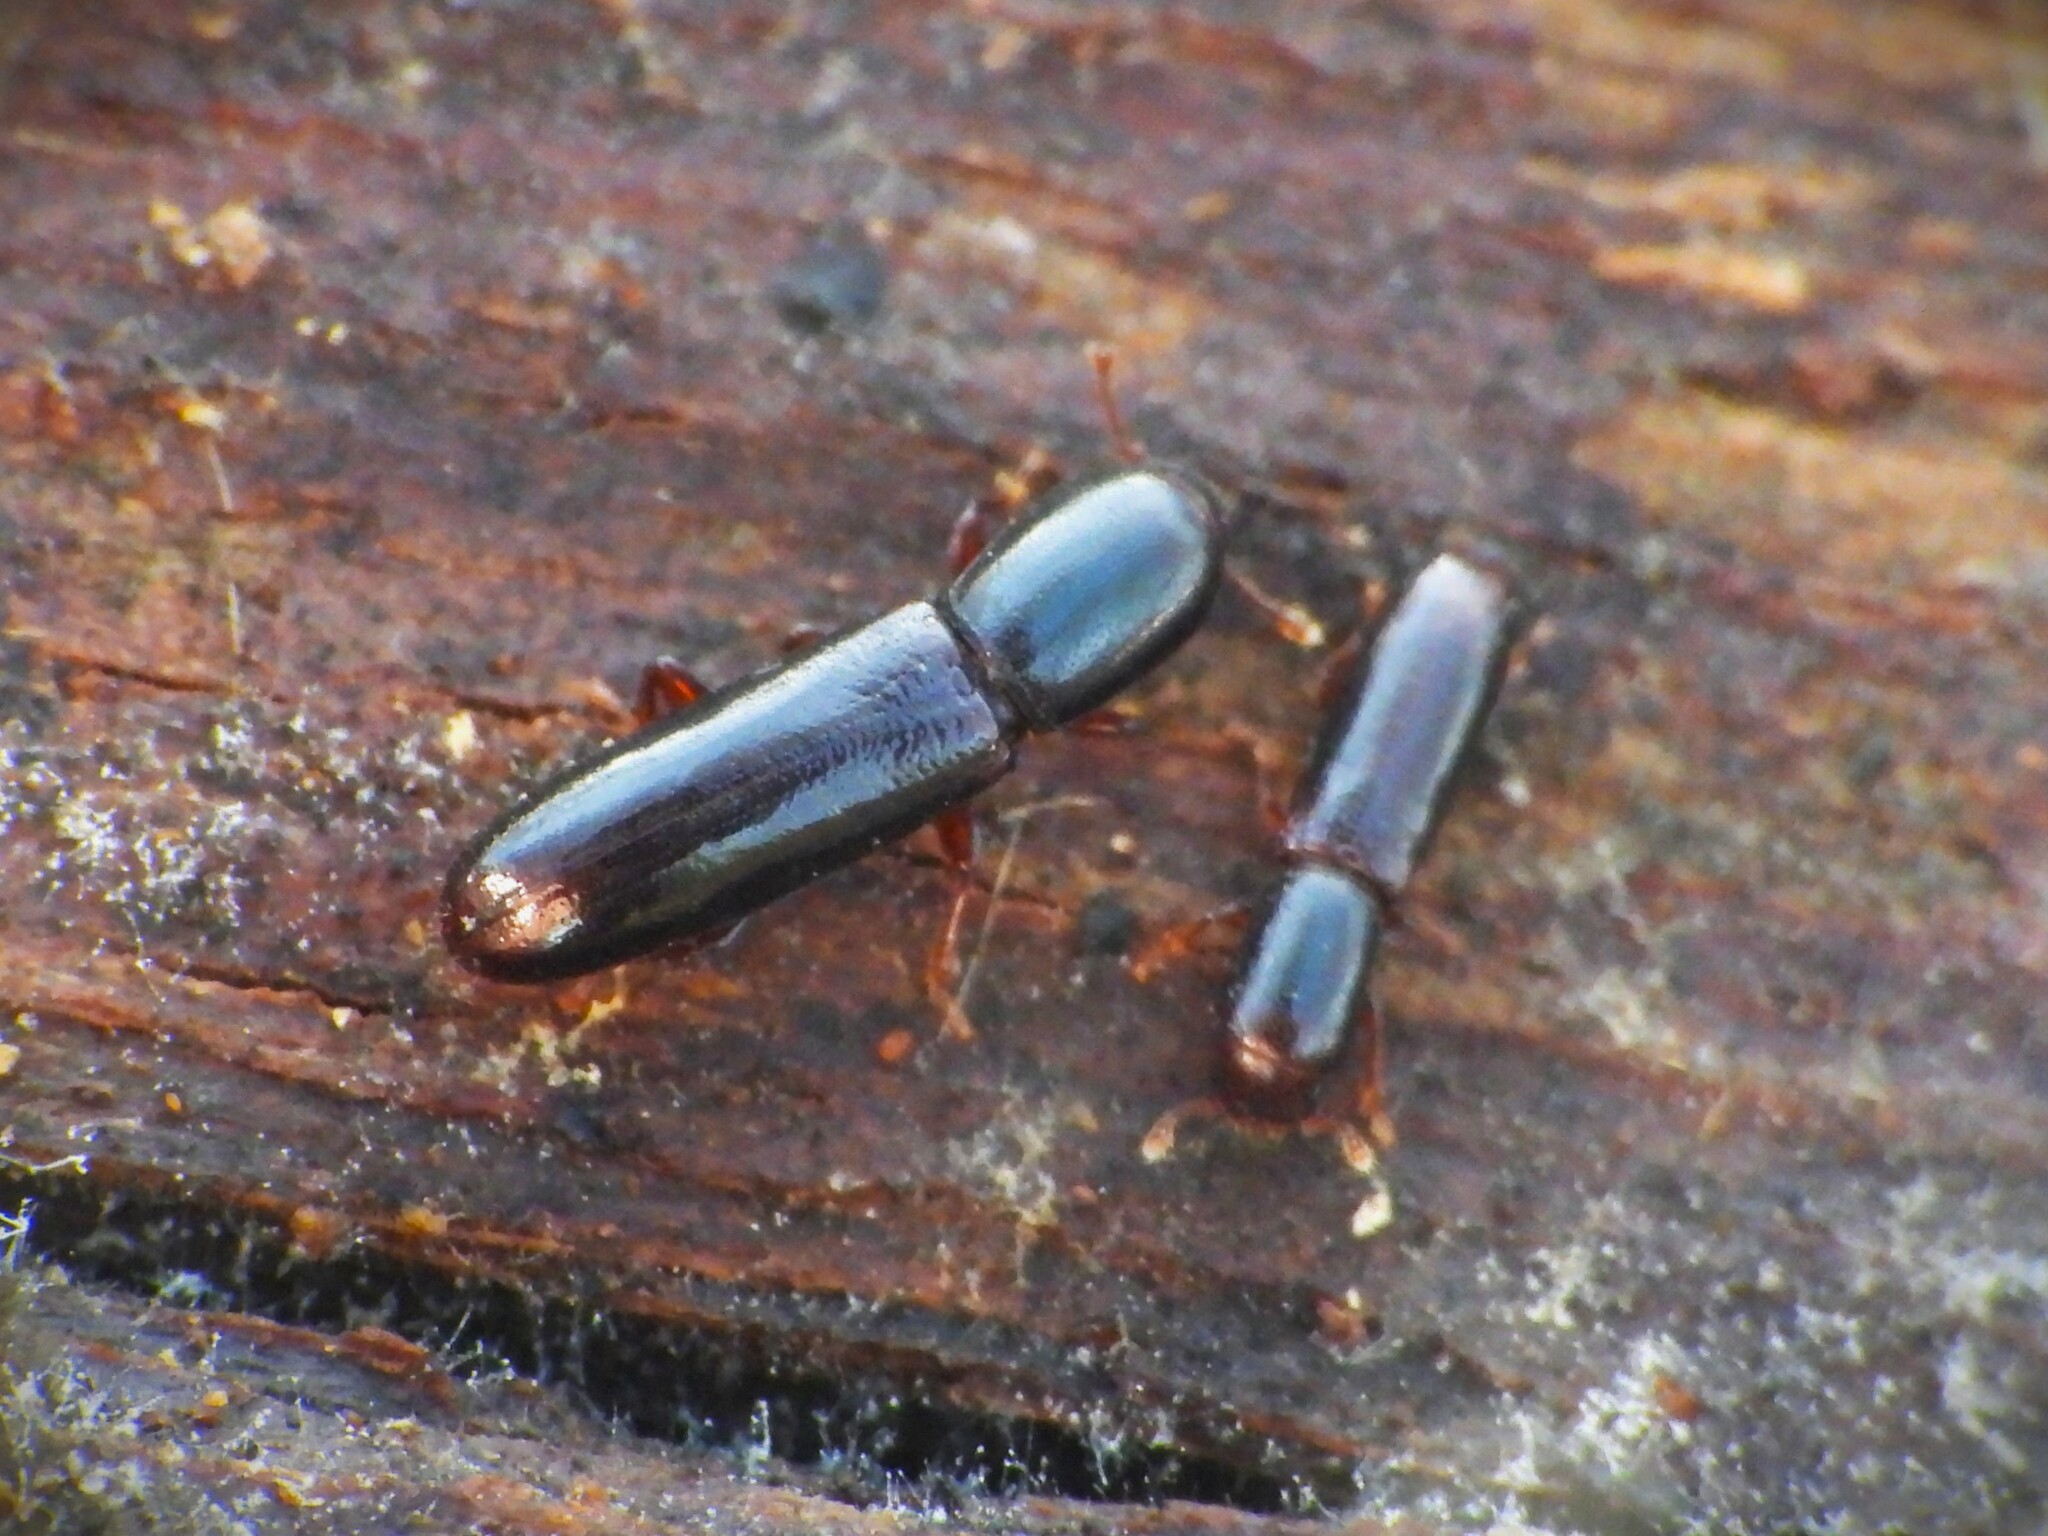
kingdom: Animalia
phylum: Arthropoda
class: Insecta
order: Coleoptera
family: Curculionidae
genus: Ips
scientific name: Ips cylindrica
